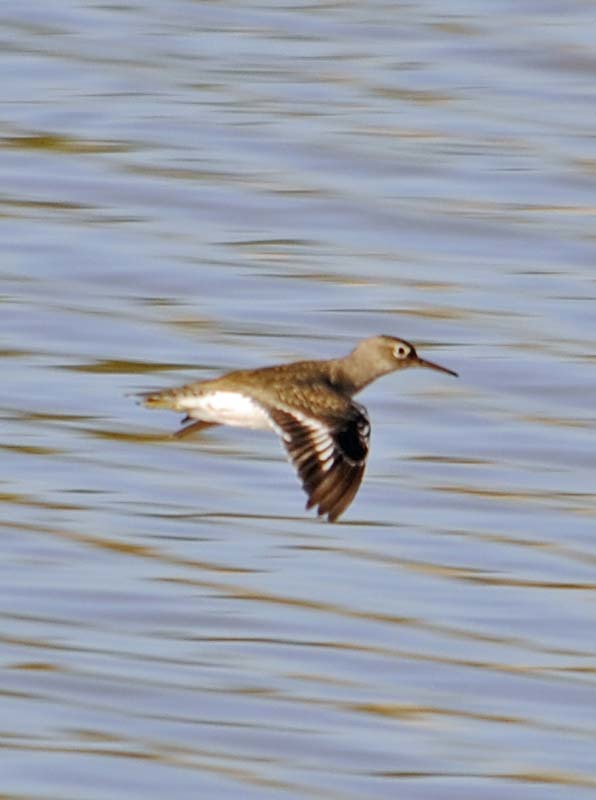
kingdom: Animalia
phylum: Chordata
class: Aves
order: Charadriiformes
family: Scolopacidae
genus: Actitis
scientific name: Actitis macularius
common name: Spotted sandpiper
